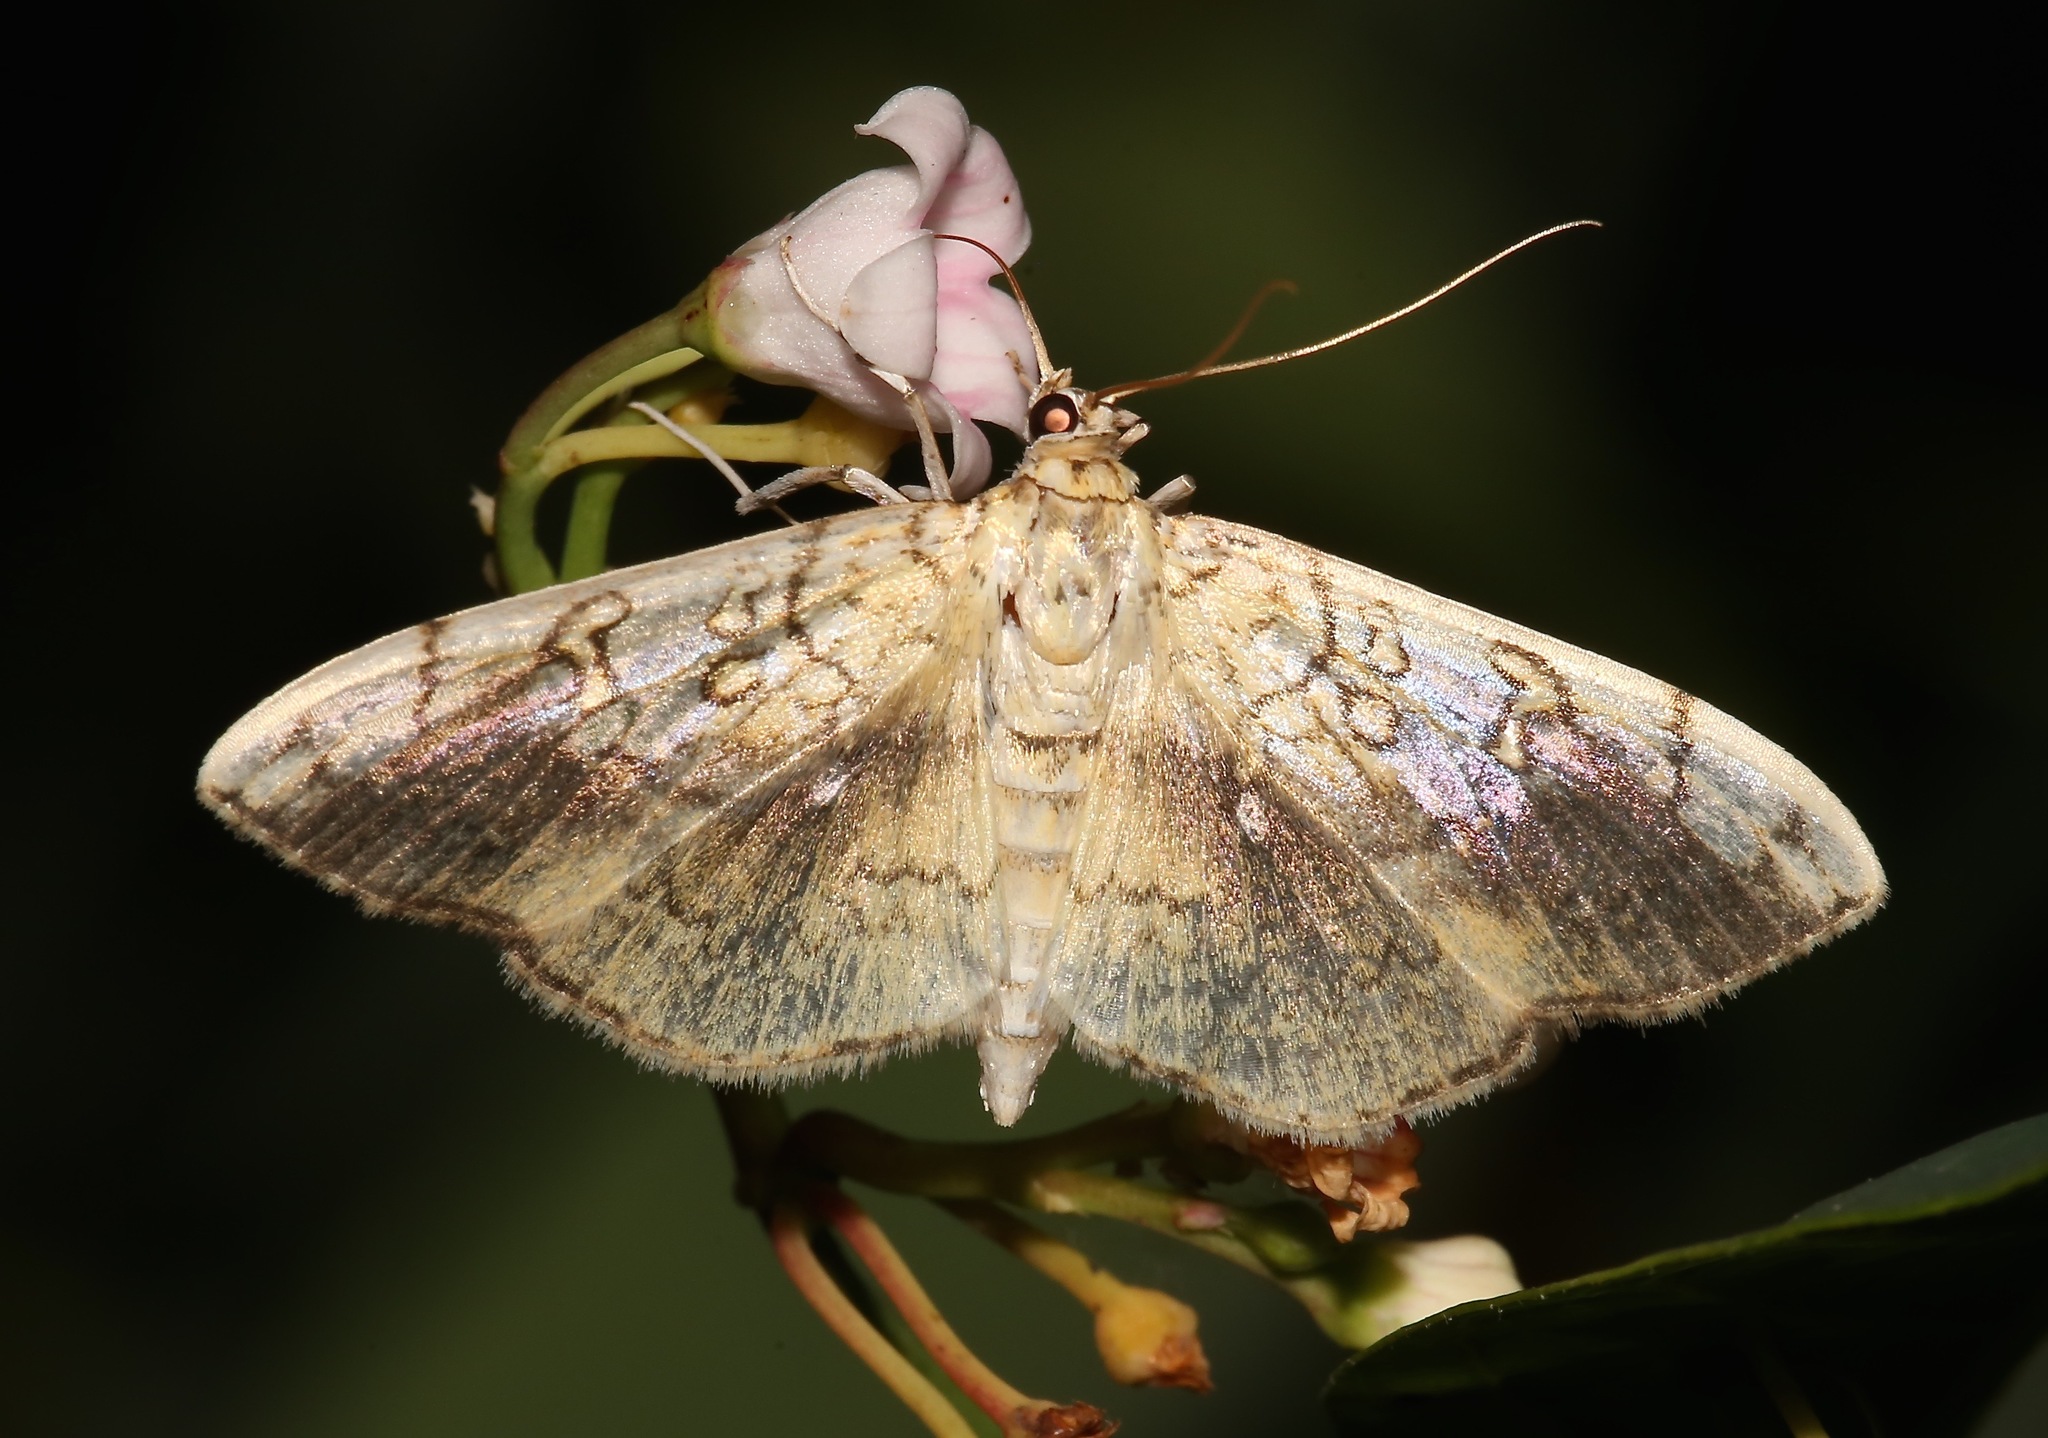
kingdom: Animalia
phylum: Arthropoda
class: Insecta
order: Lepidoptera
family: Crambidae
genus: Pantographa
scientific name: Pantographa limata
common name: Basswood leafroller moth
